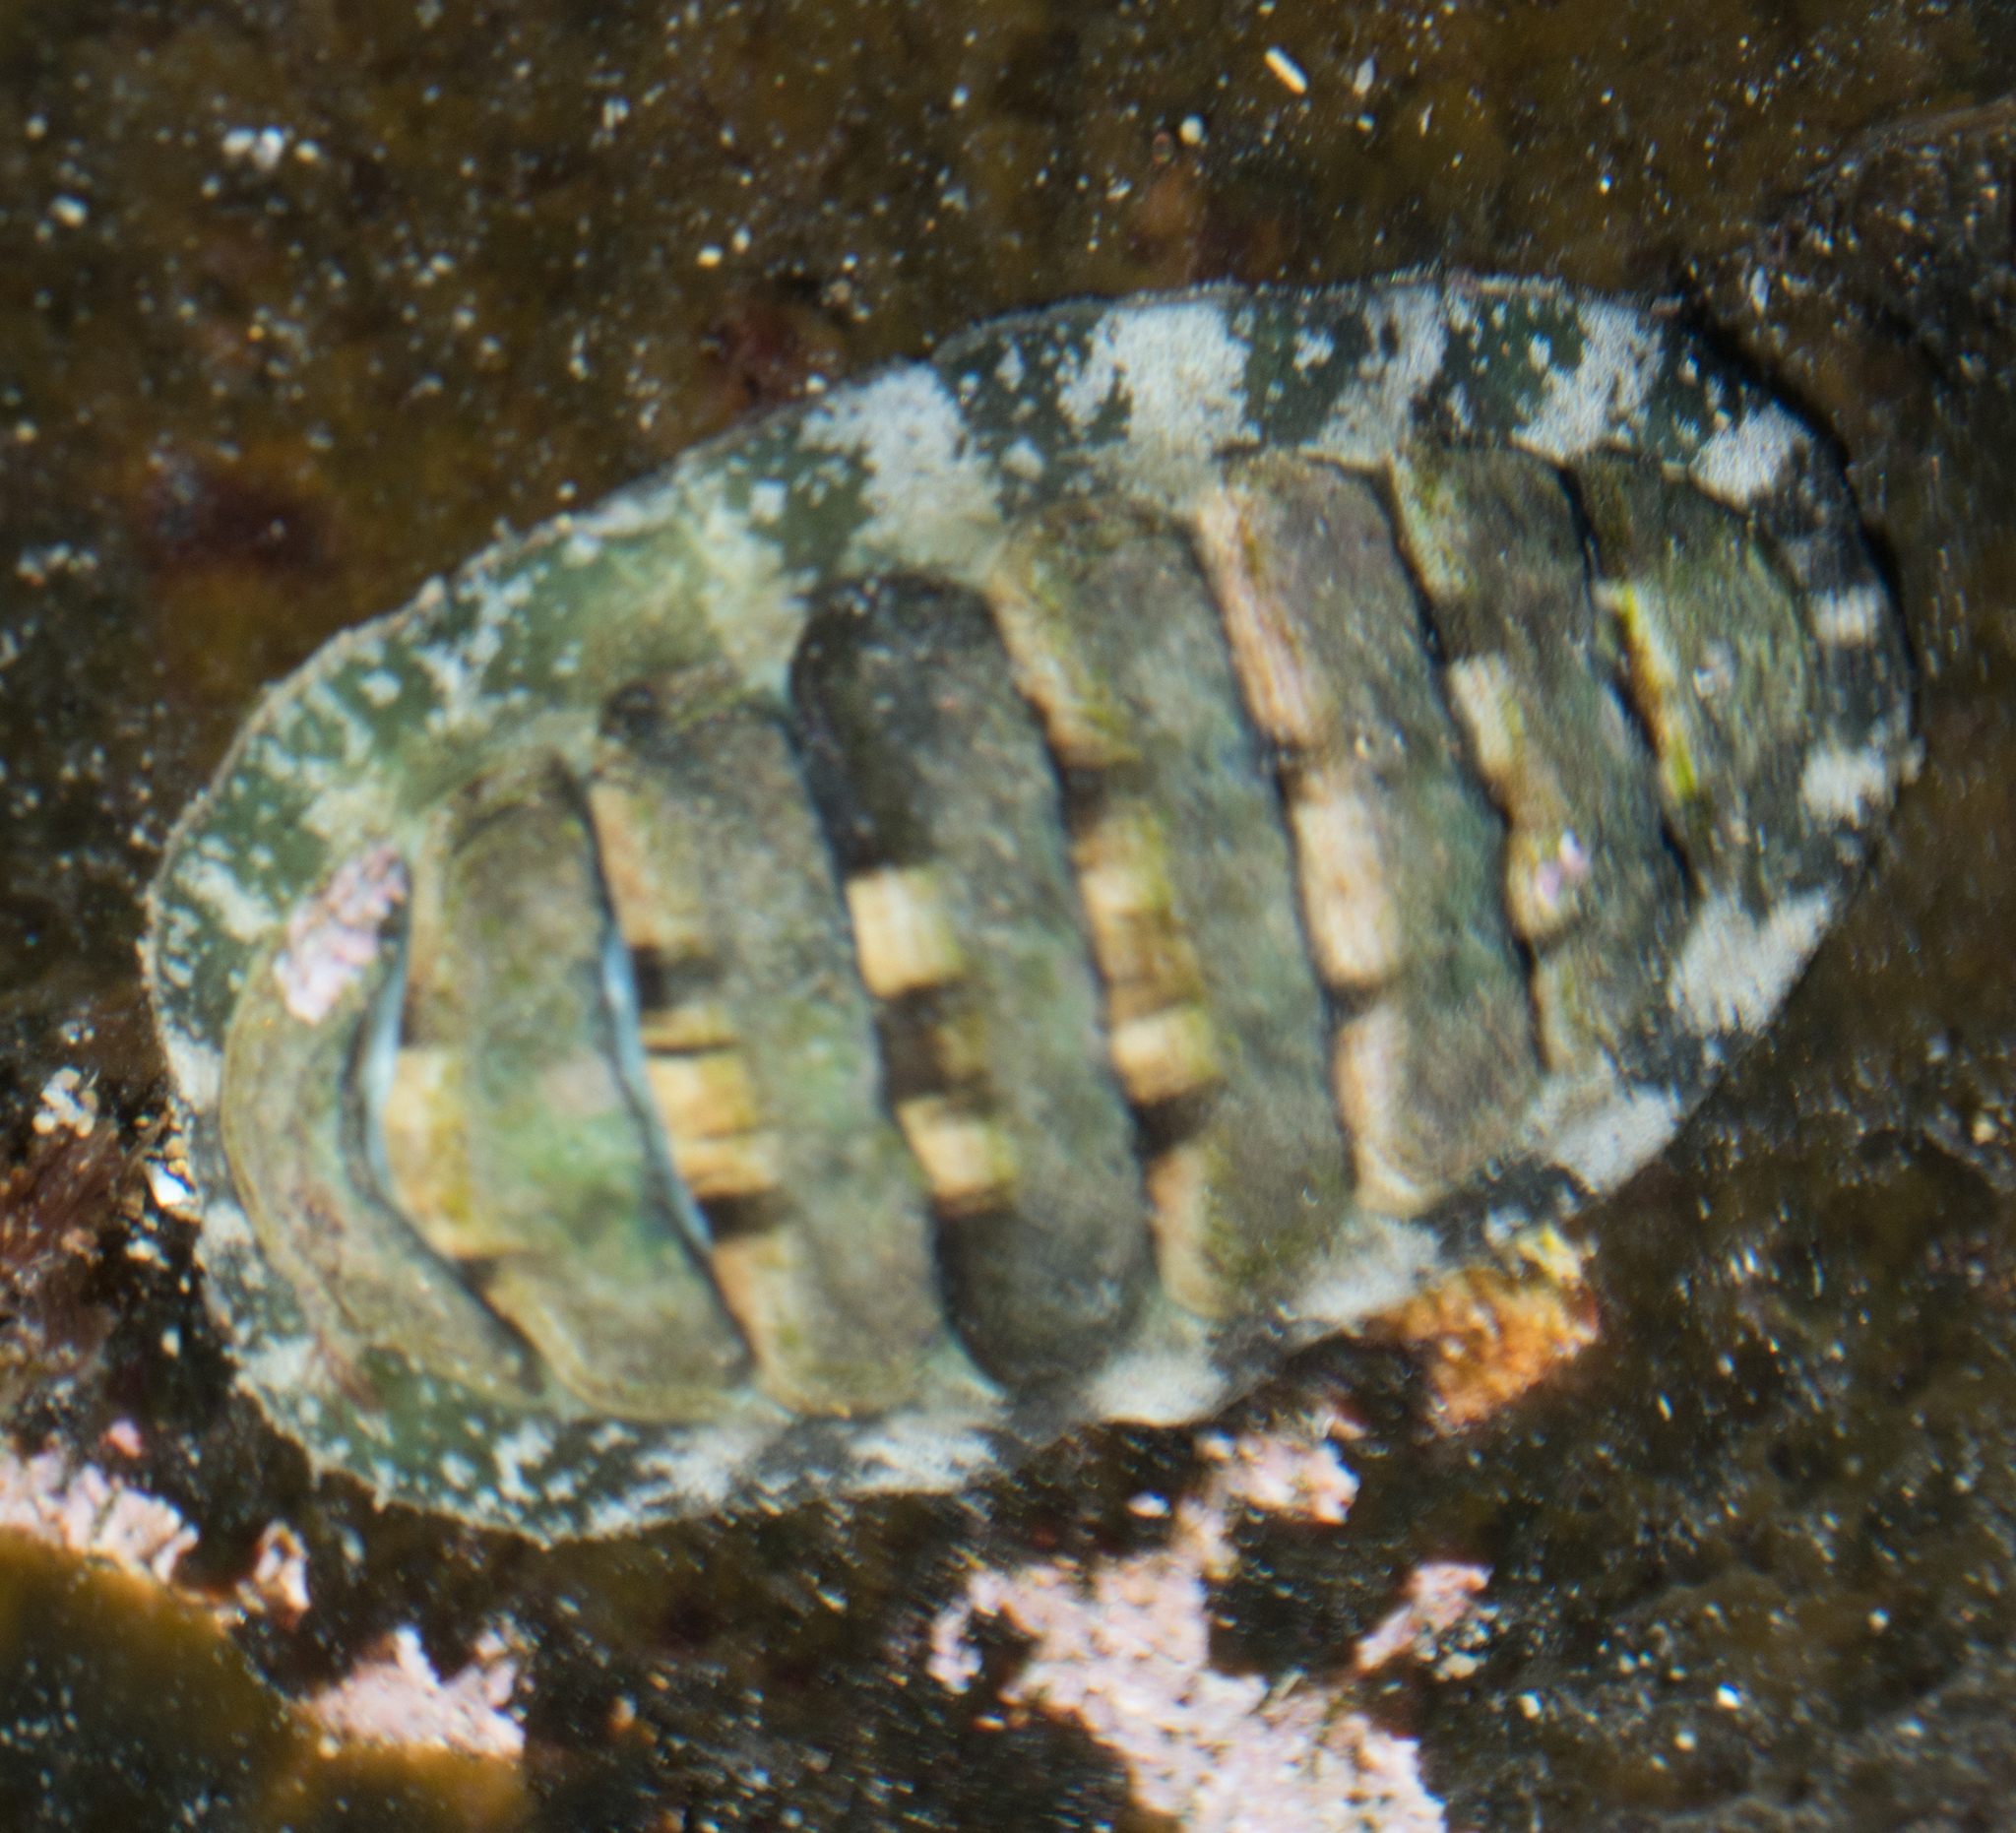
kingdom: Animalia
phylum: Mollusca
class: Polyplacophora
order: Chitonida
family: Tonicellidae
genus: Cyanoplax
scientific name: Cyanoplax hartwegii
